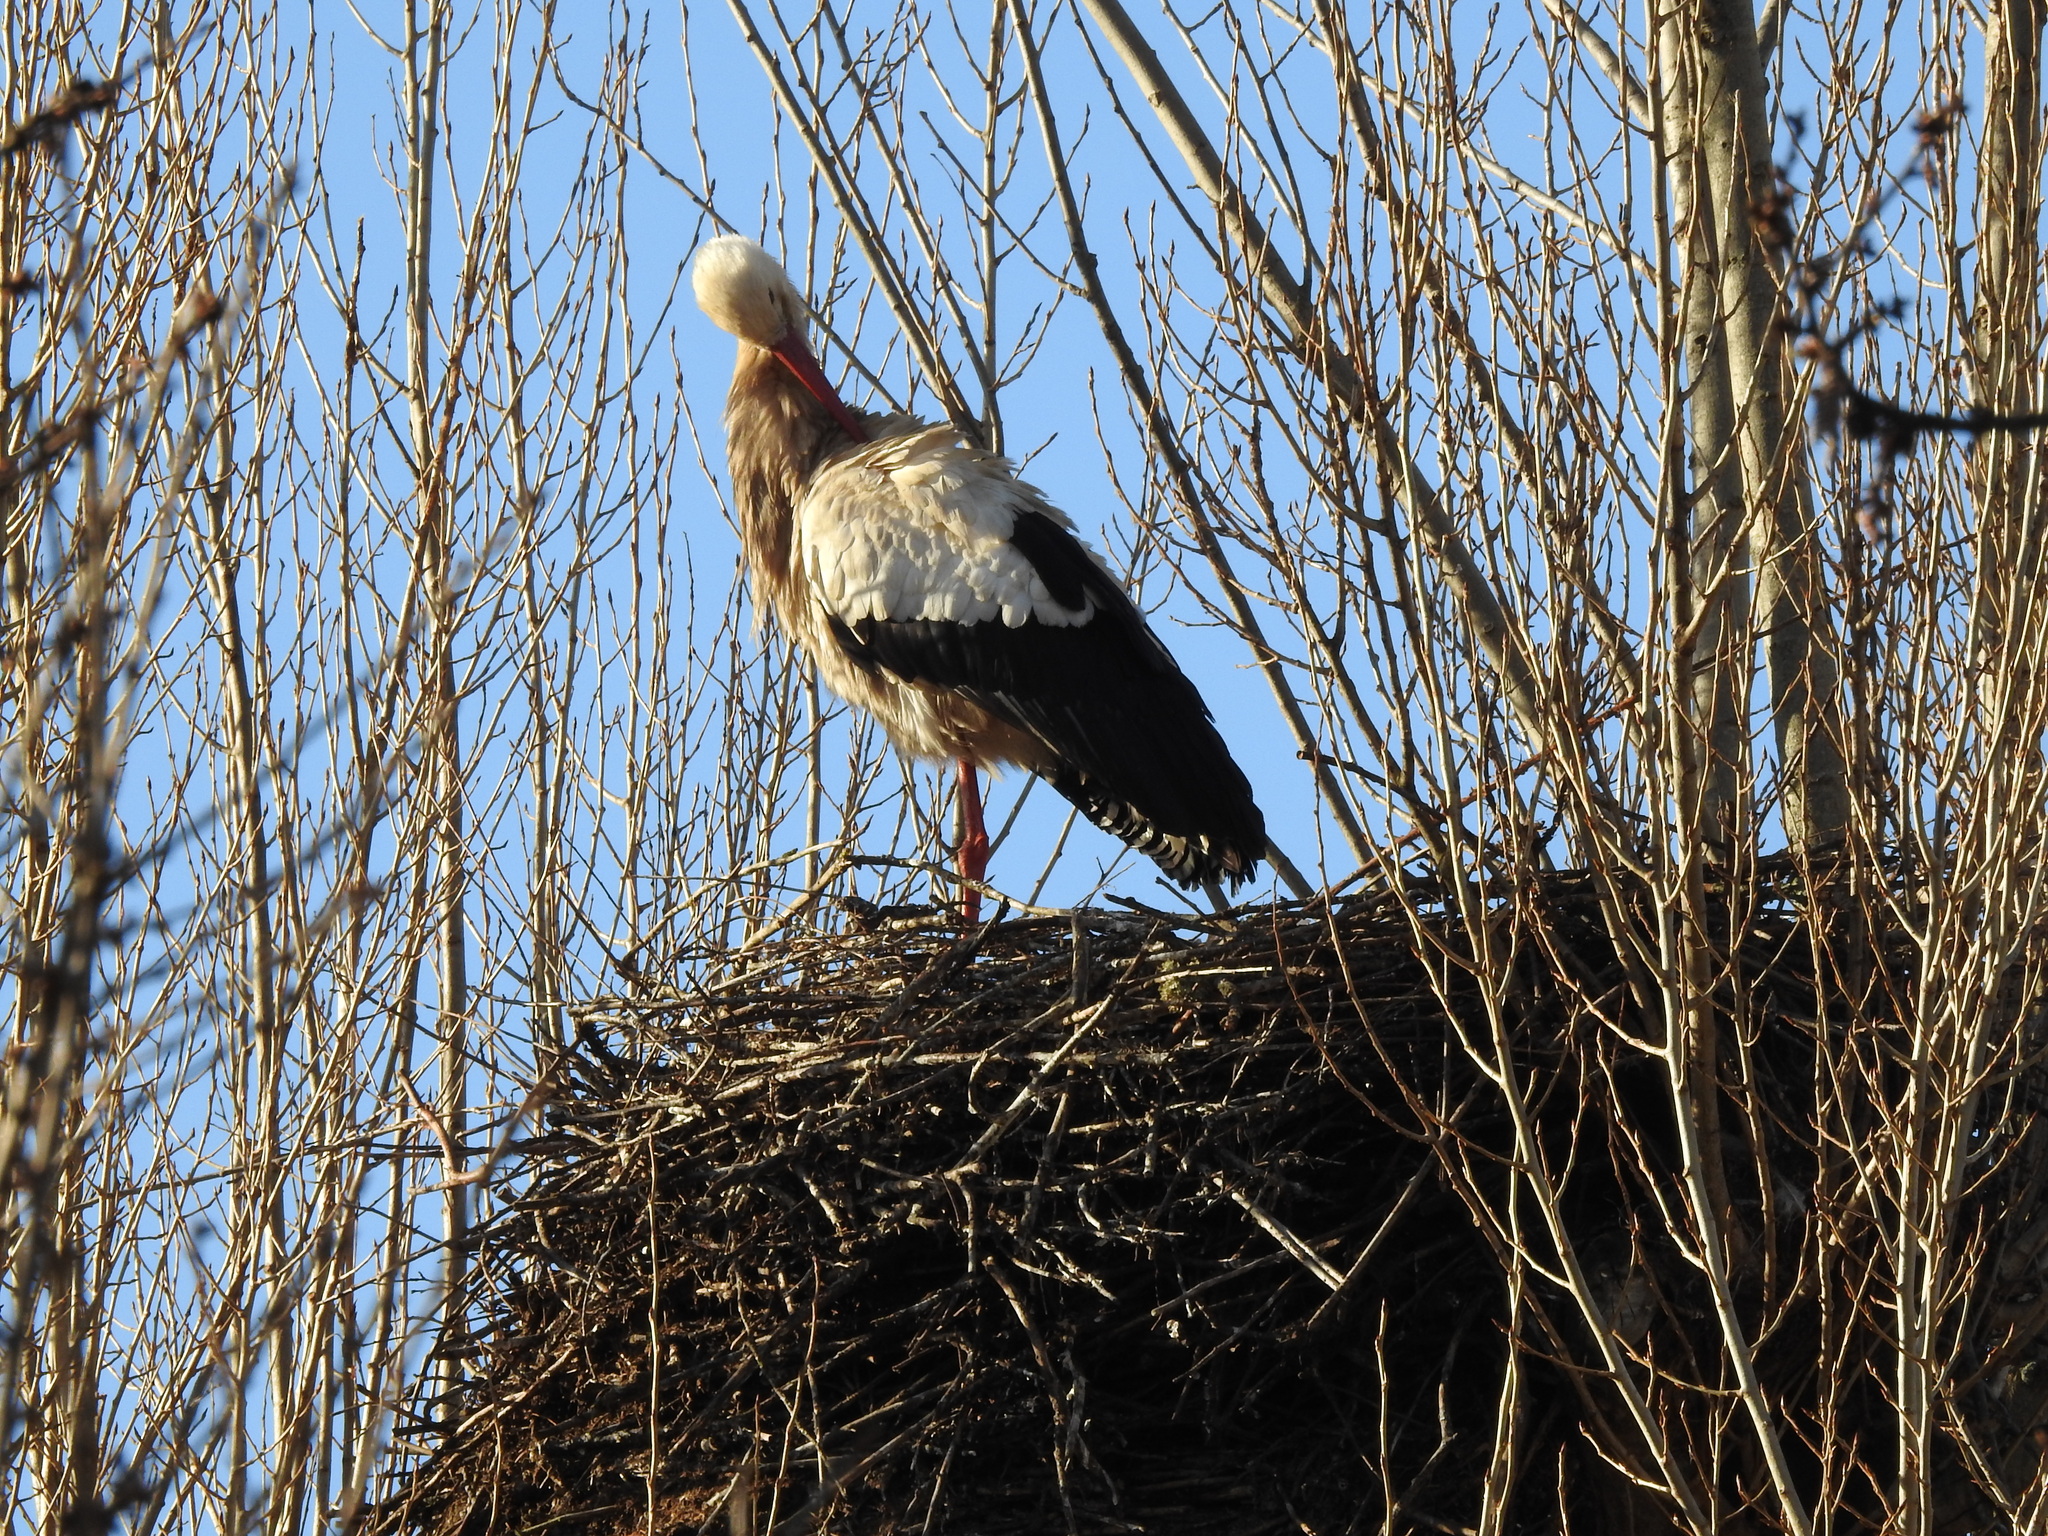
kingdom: Animalia
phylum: Chordata
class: Aves
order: Ciconiiformes
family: Ciconiidae
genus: Ciconia
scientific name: Ciconia ciconia
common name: White stork
